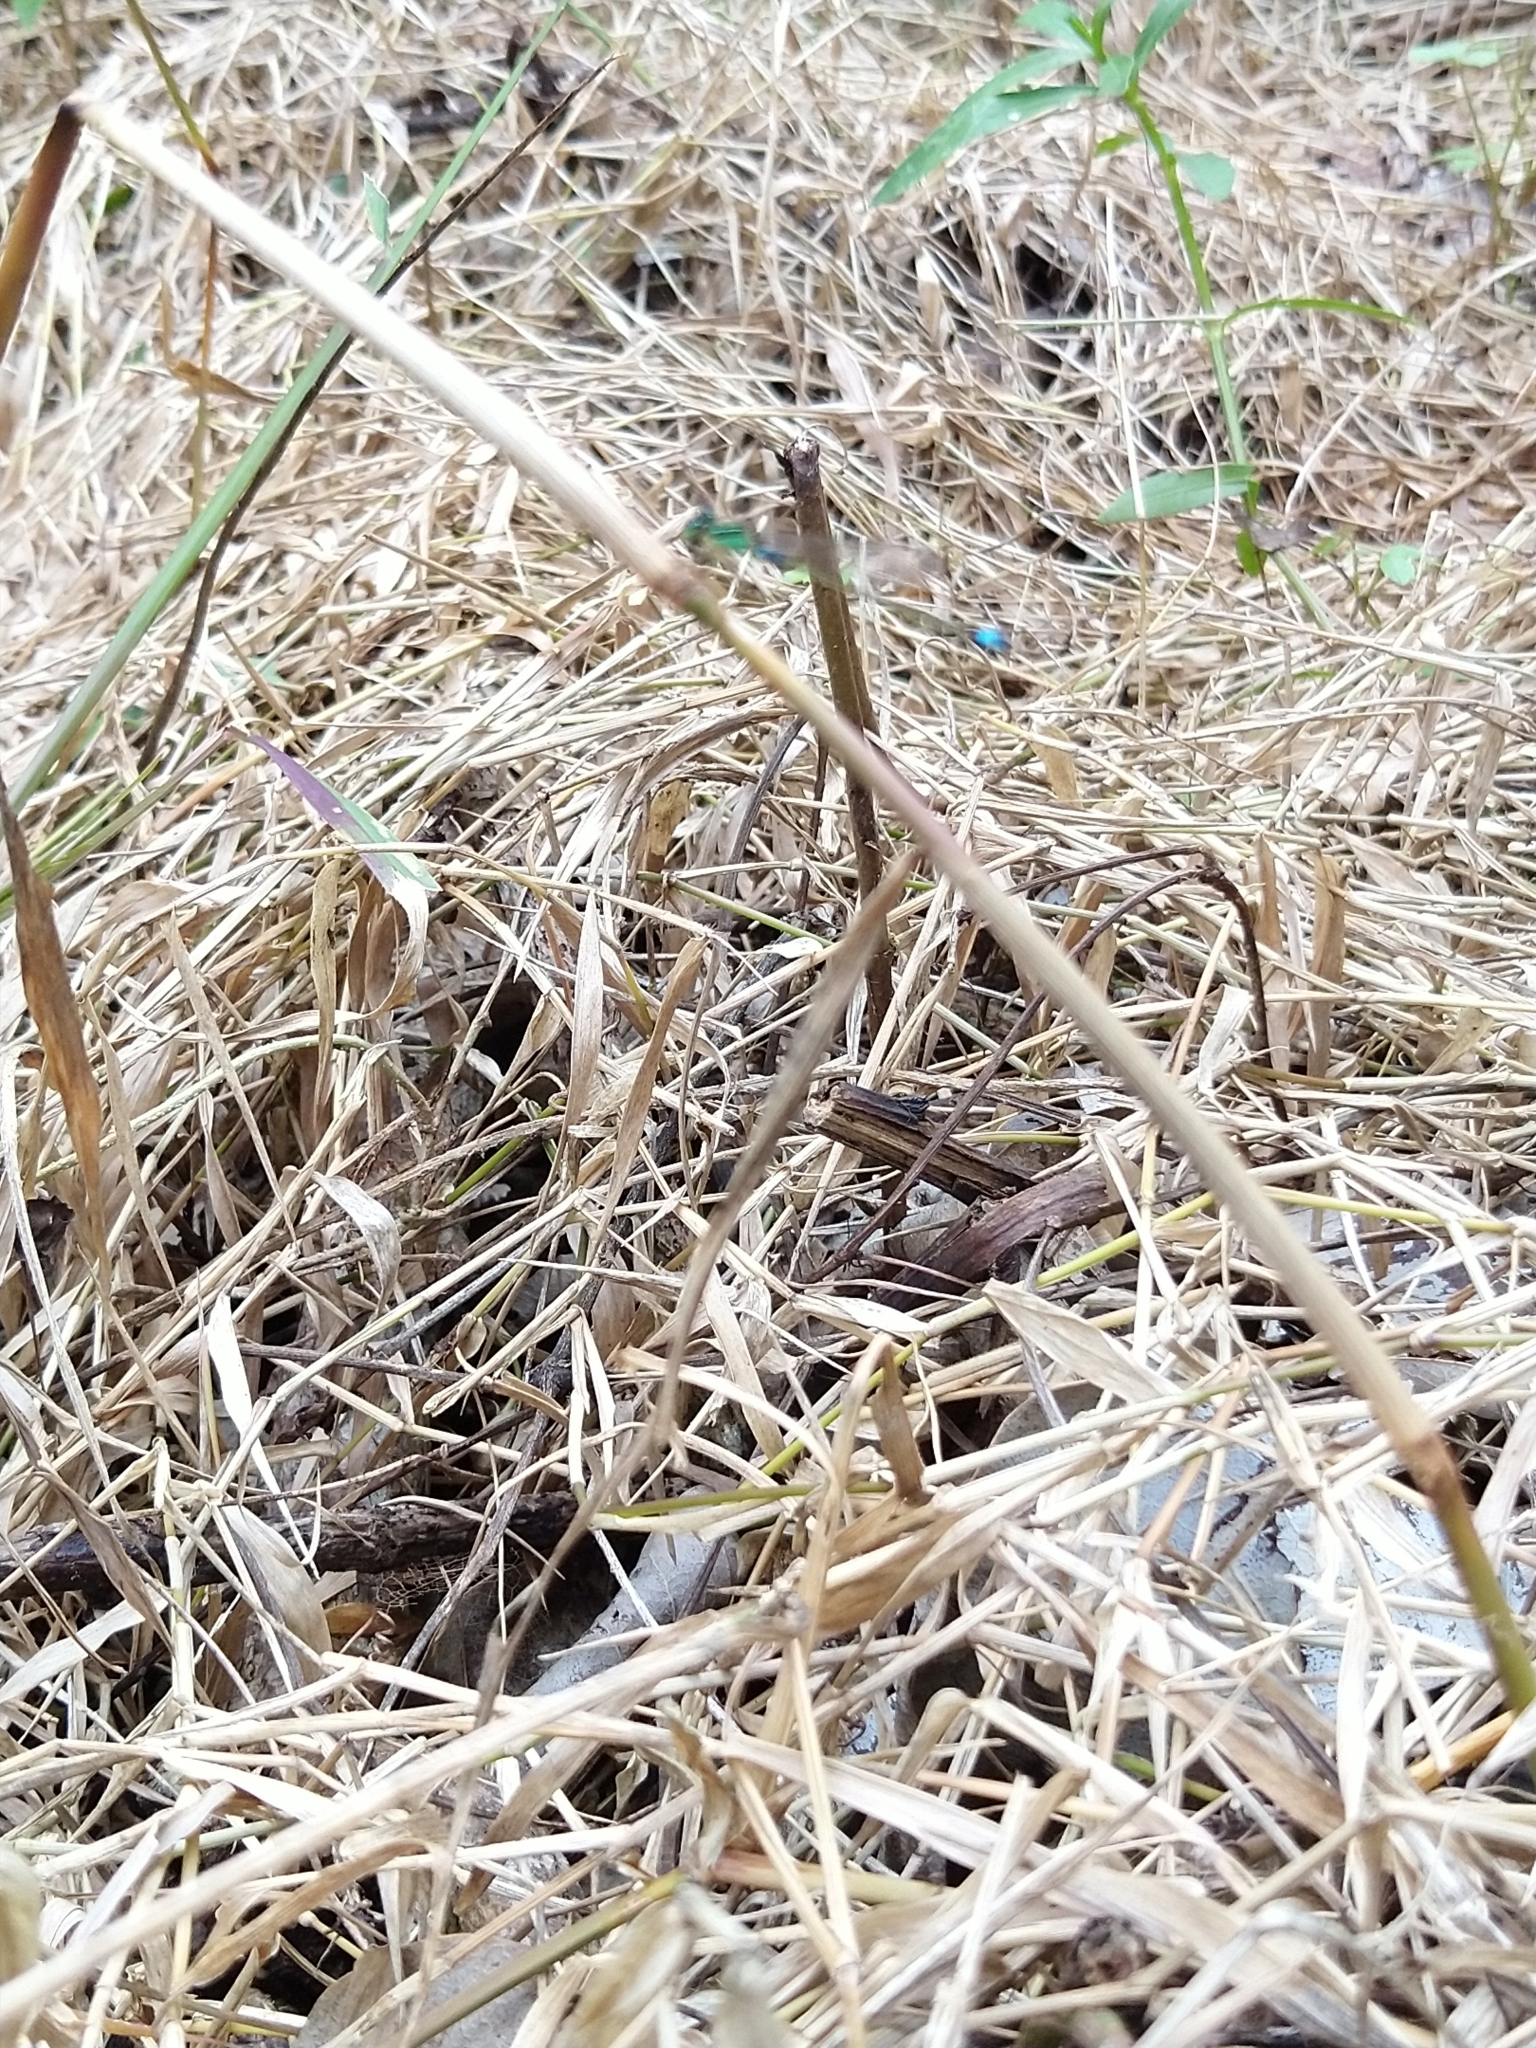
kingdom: Animalia
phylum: Arthropoda
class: Insecta
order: Odonata
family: Coenagrionidae
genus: Ischnura
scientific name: Ischnura senegalensis
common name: Tropical bluetail
